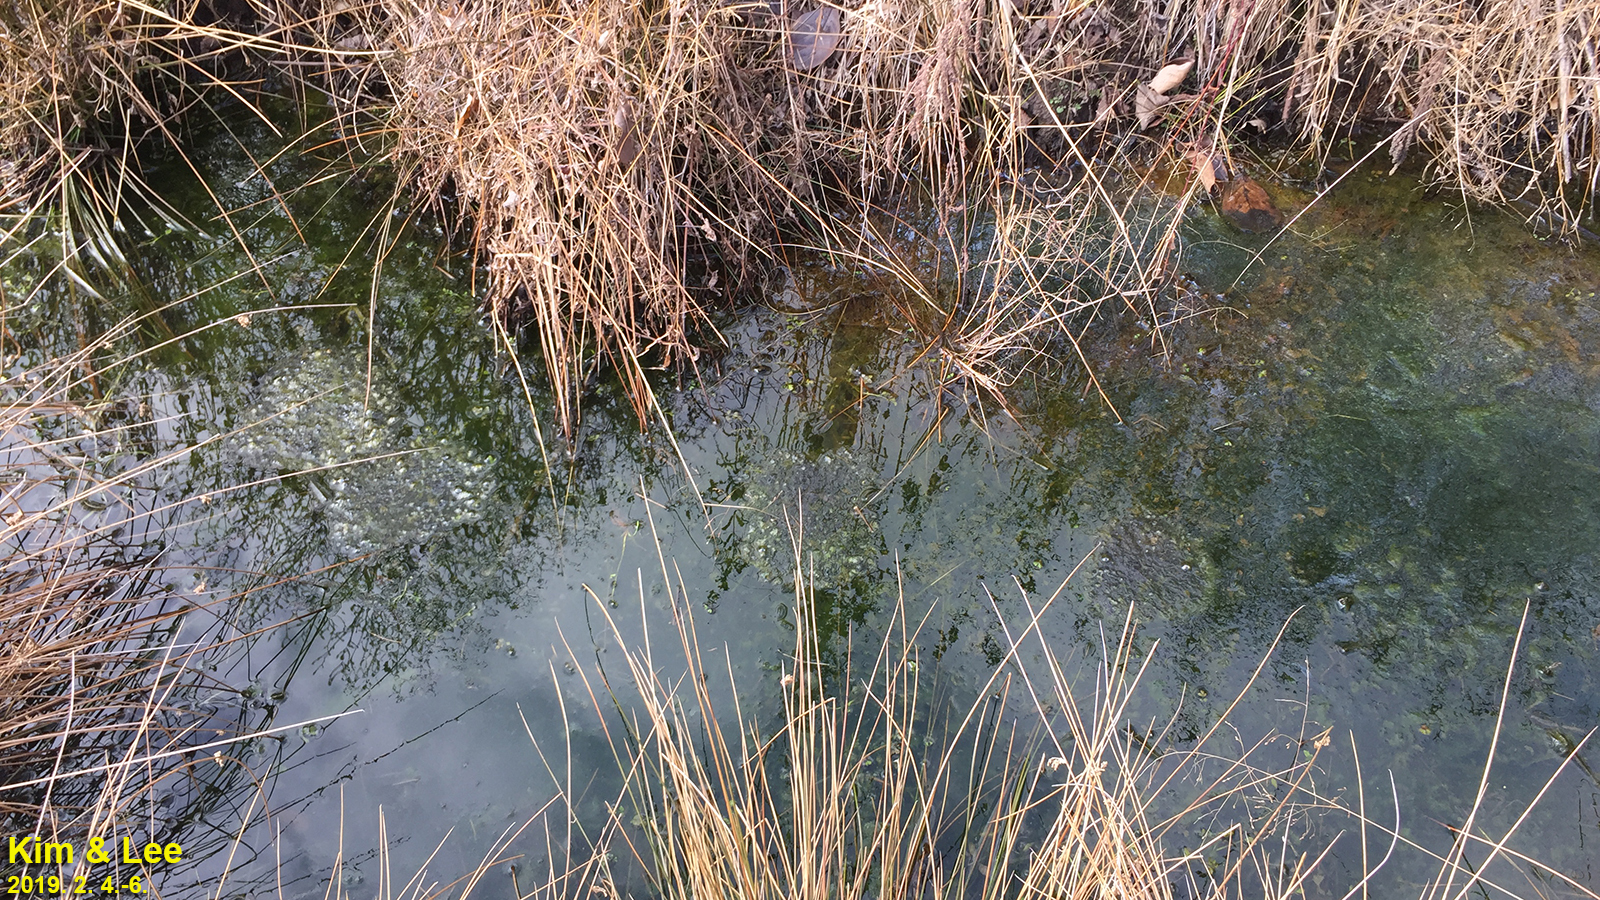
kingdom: Animalia
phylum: Chordata
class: Amphibia
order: Anura
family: Ranidae
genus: Rana
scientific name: Rana uenoi
